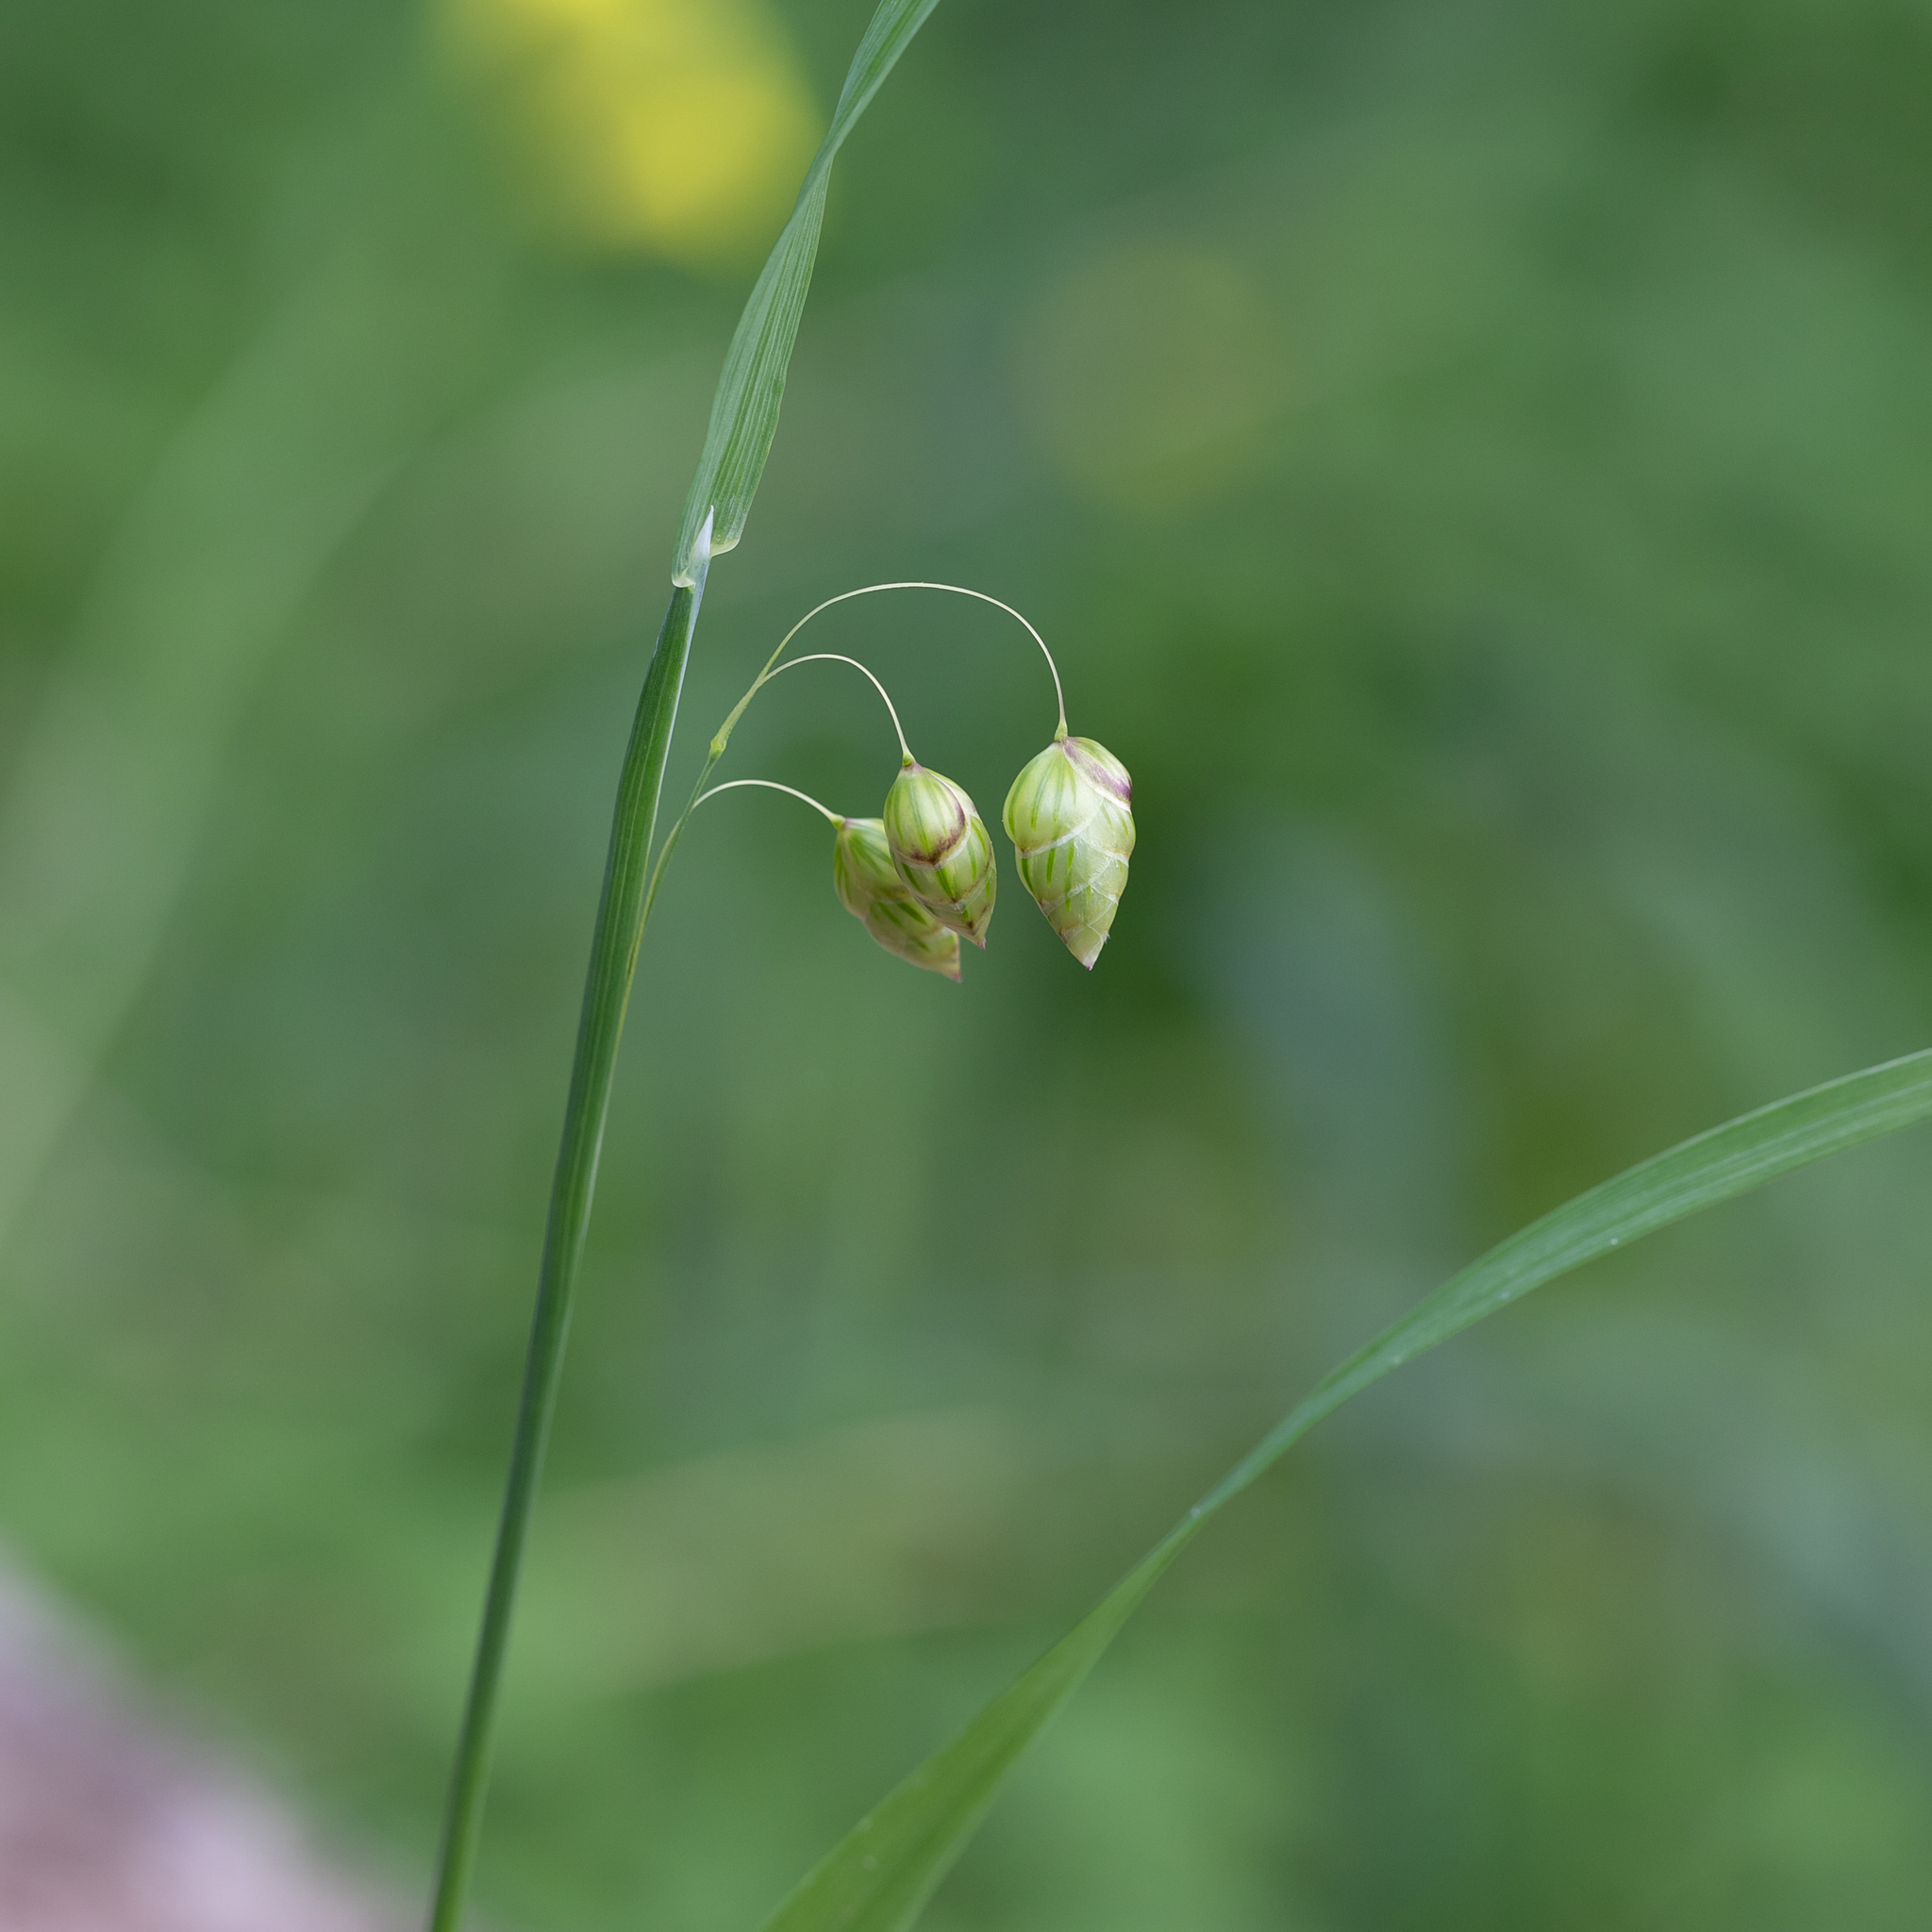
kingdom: Plantae
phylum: Tracheophyta
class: Liliopsida
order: Poales
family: Poaceae
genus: Briza
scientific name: Briza maxima
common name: Big quakinggrass
